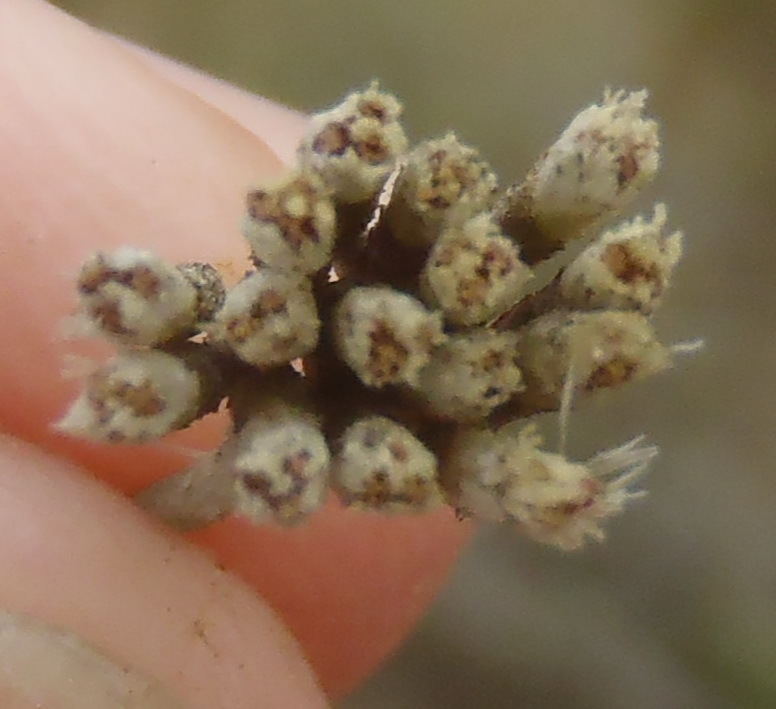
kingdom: Plantae
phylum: Tracheophyta
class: Magnoliopsida
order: Asterales
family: Asteraceae
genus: Metalasia
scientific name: Metalasia muricata
